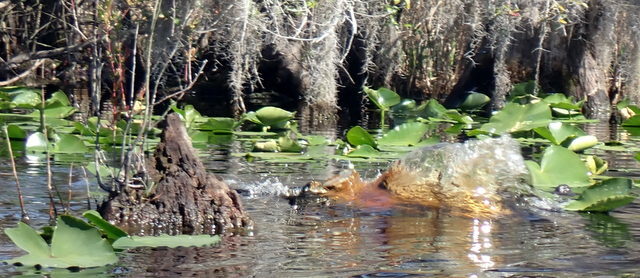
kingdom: Animalia
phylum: Chordata
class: Crocodylia
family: Alligatoridae
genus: Alligator
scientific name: Alligator mississippiensis
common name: American alligator
